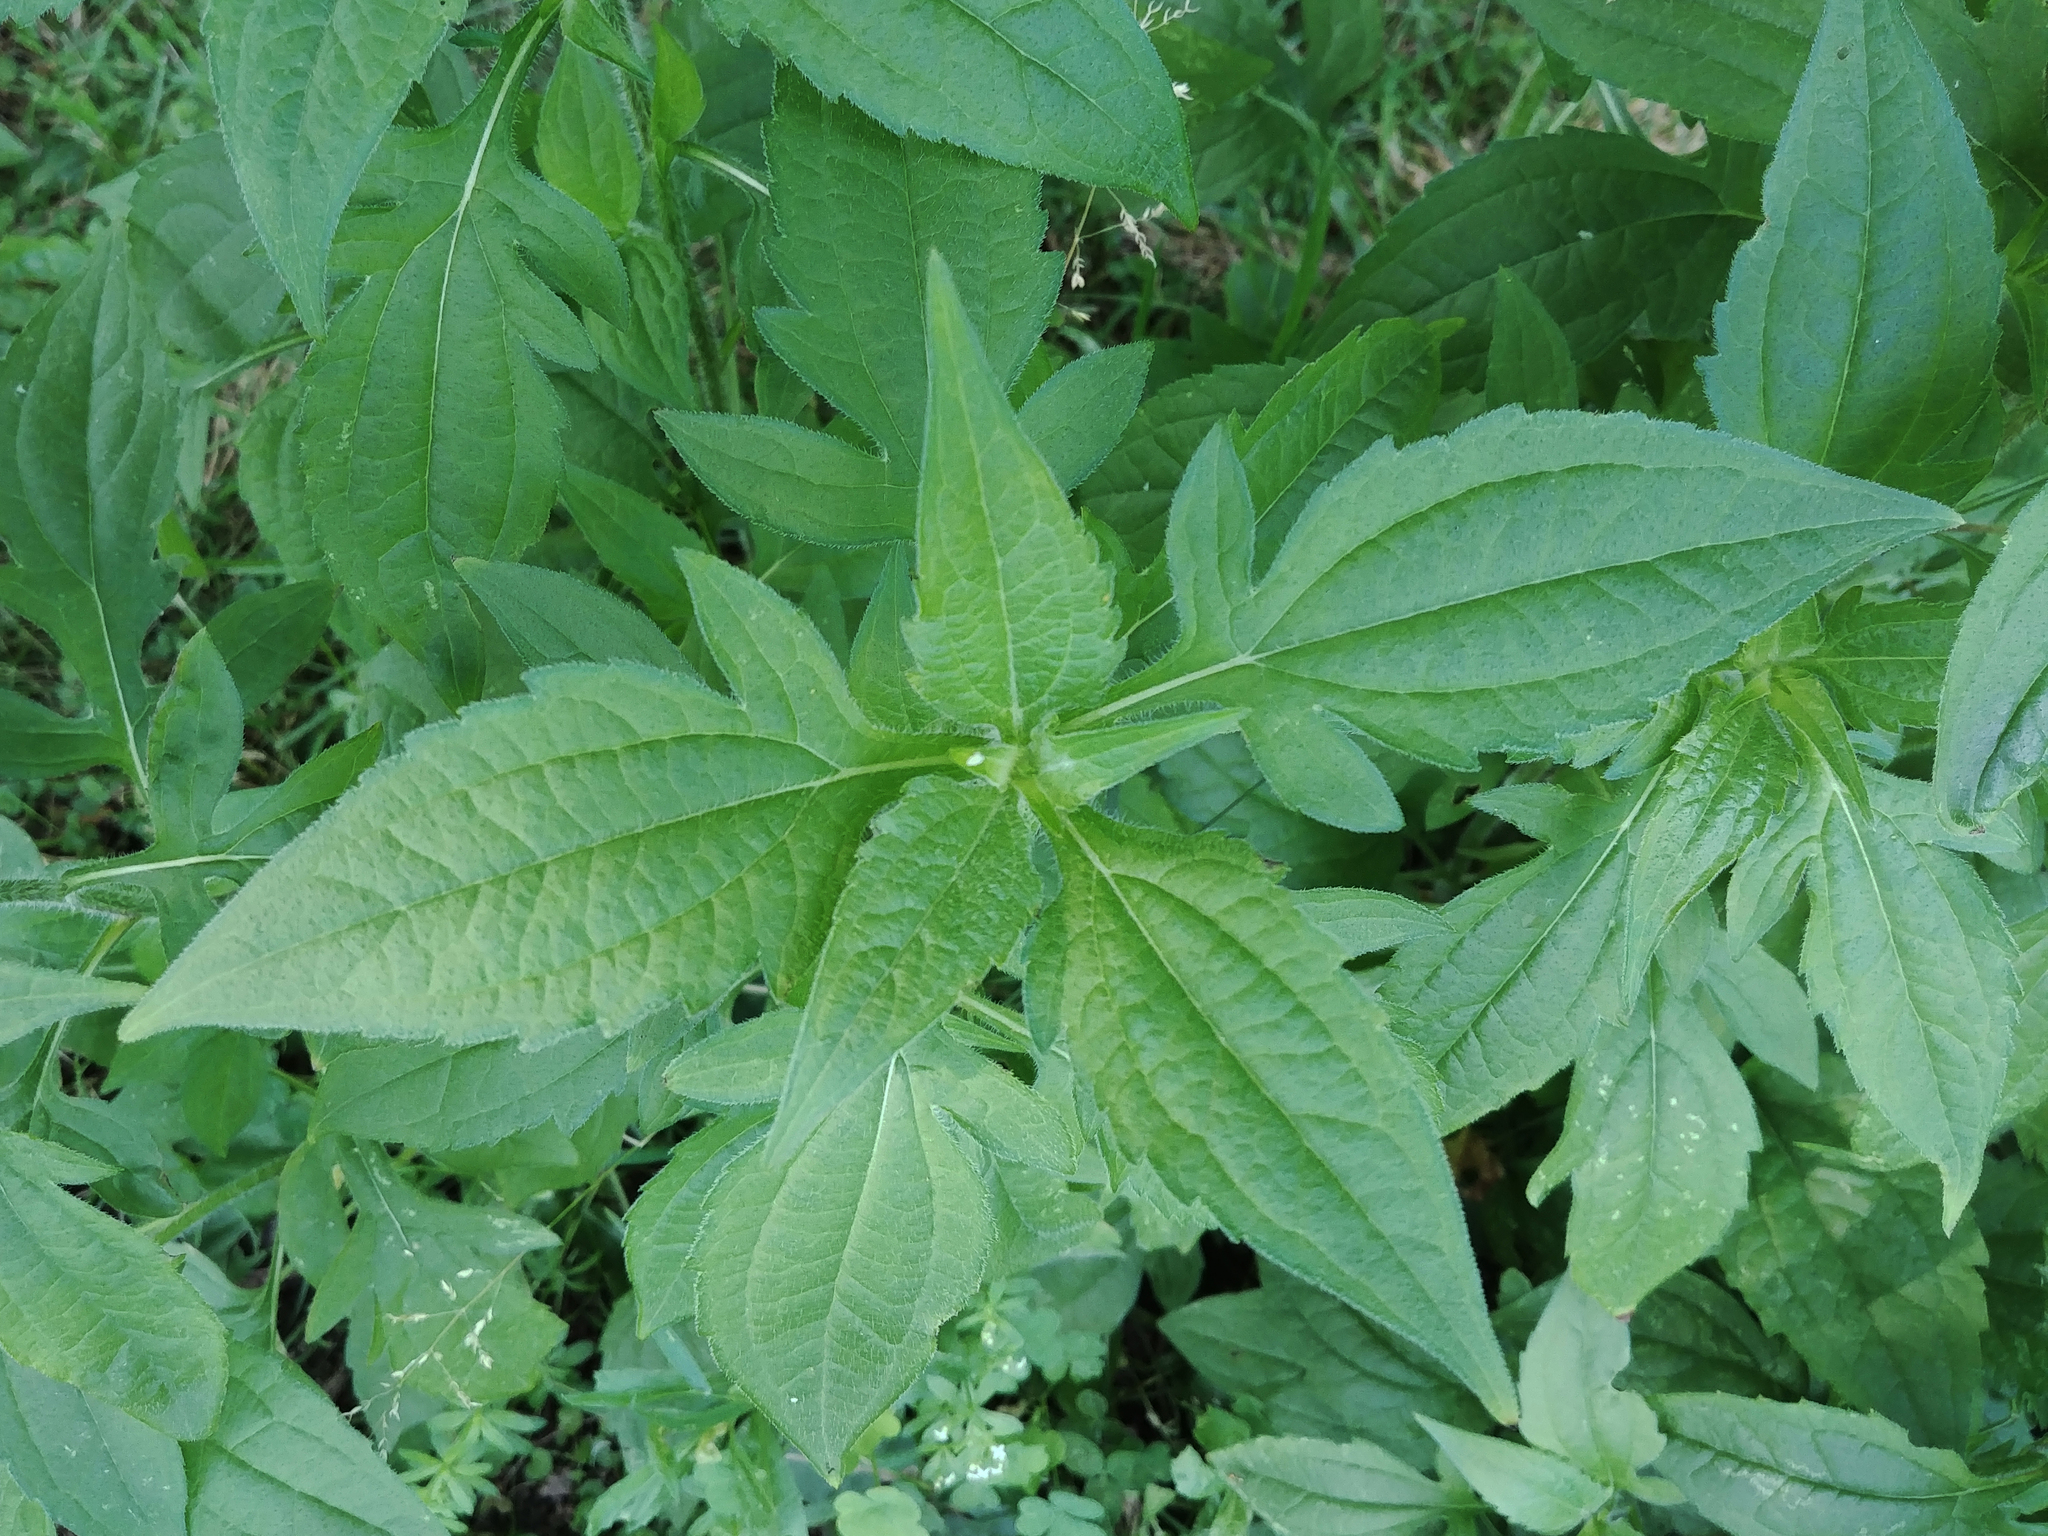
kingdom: Plantae
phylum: Tracheophyta
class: Magnoliopsida
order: Asterales
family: Asteraceae
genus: Rudbeckia
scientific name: Rudbeckia triloba
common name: Thin-leaved coneflower
